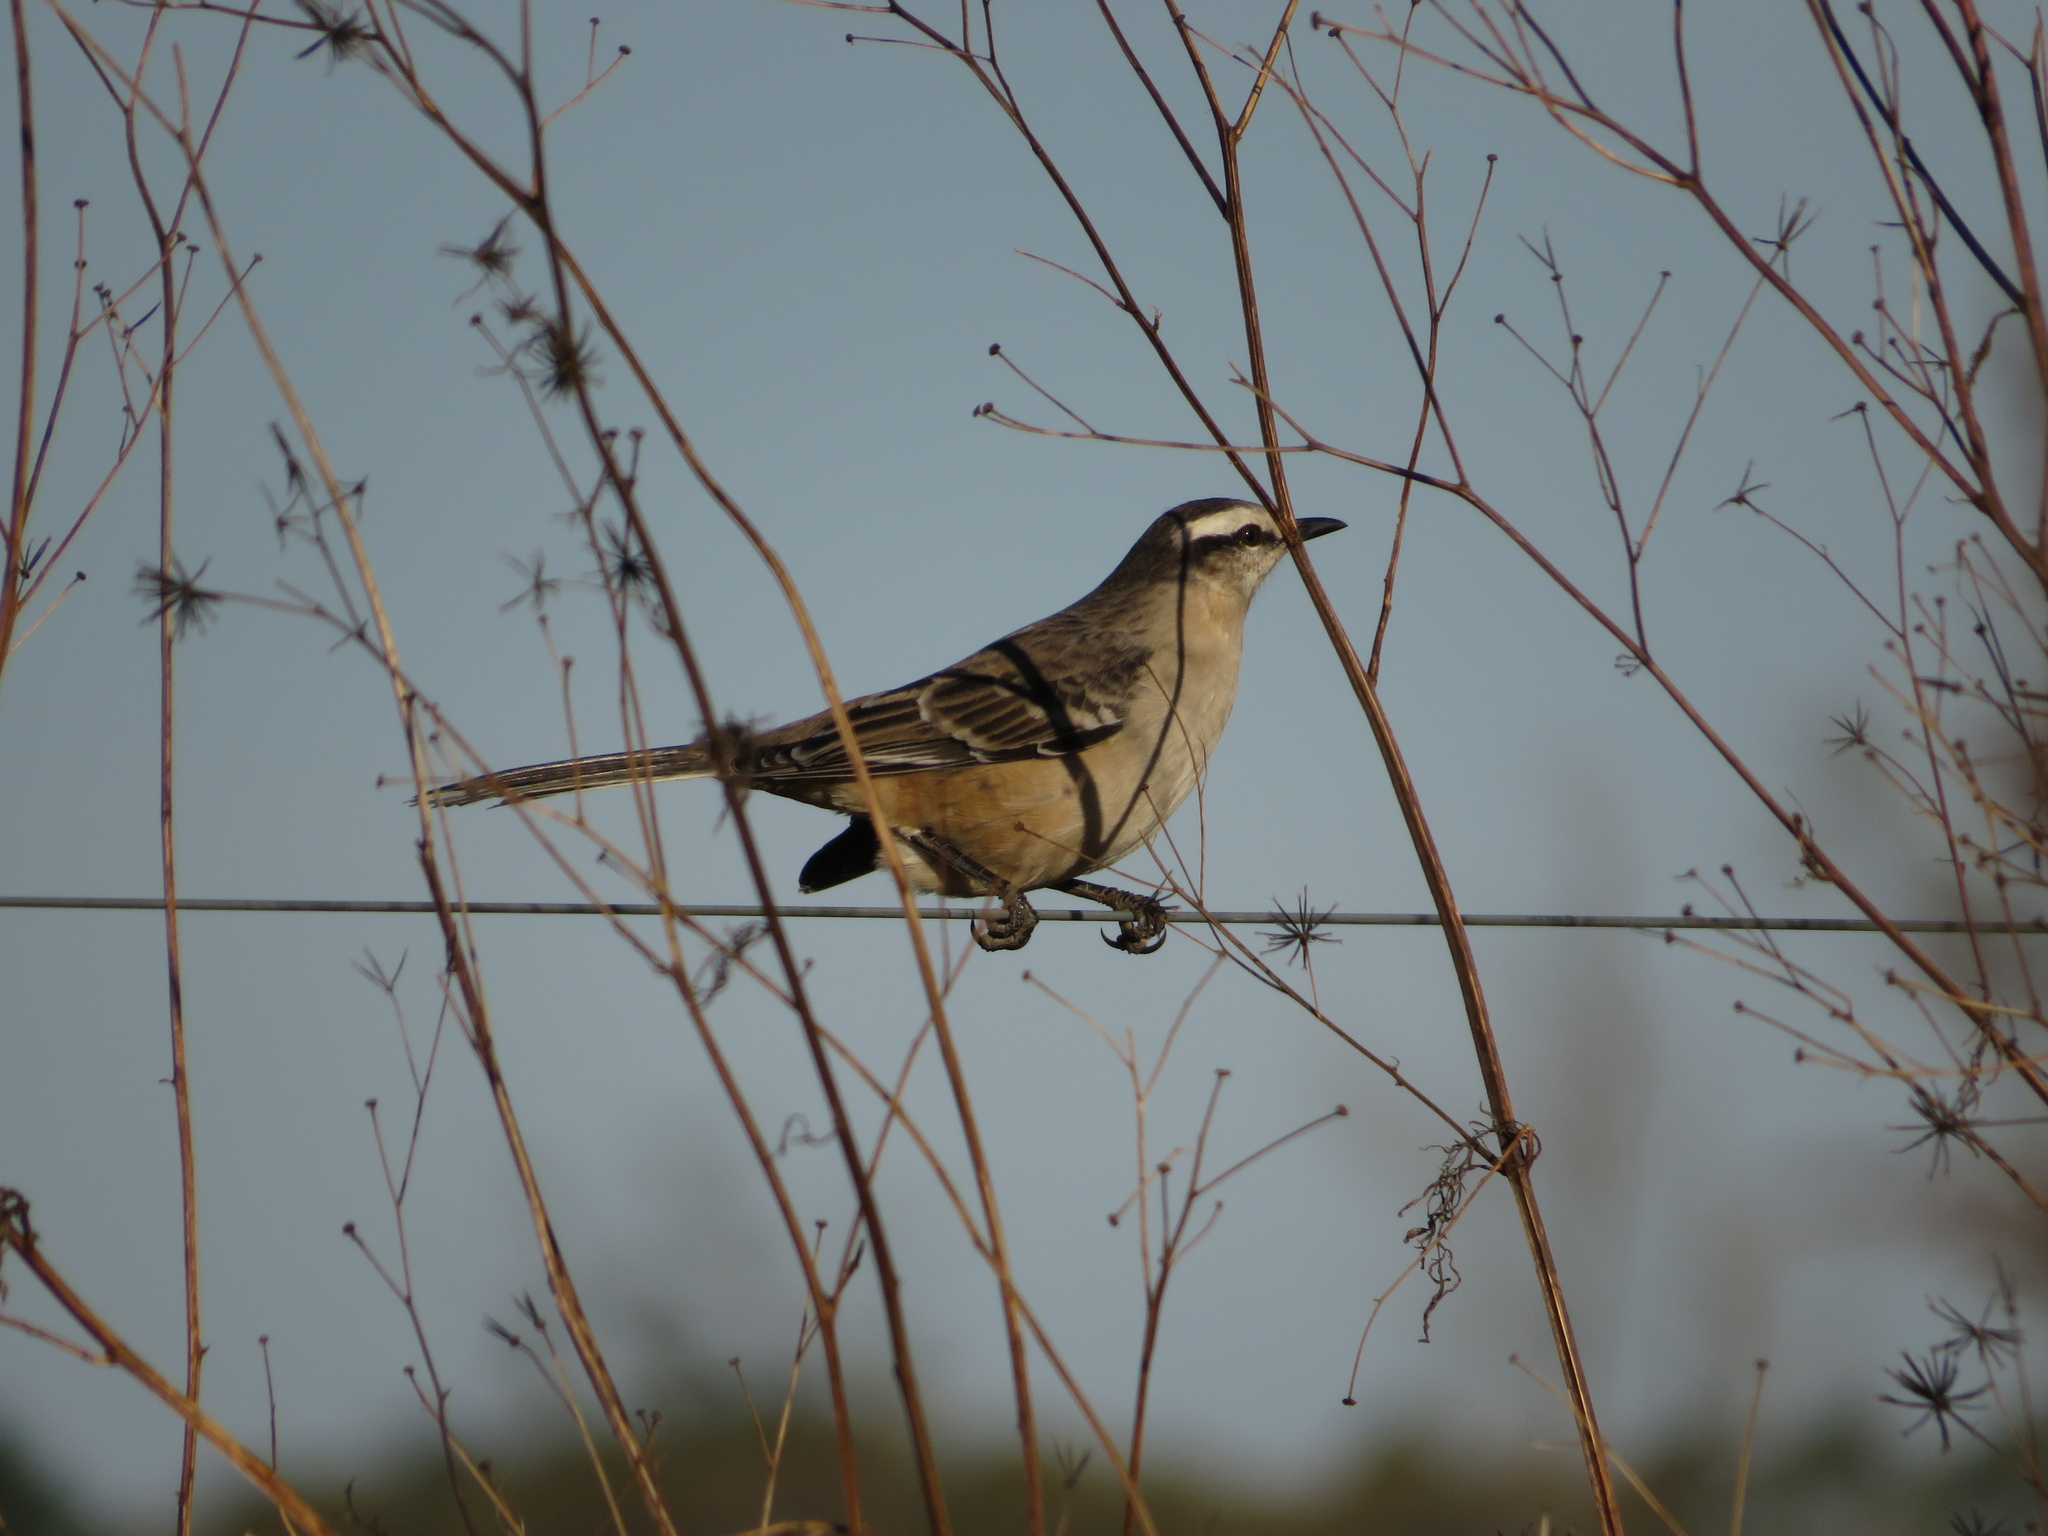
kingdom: Animalia
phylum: Chordata
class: Aves
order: Passeriformes
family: Mimidae
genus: Mimus
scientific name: Mimus saturninus
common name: Chalk-browed mockingbird
